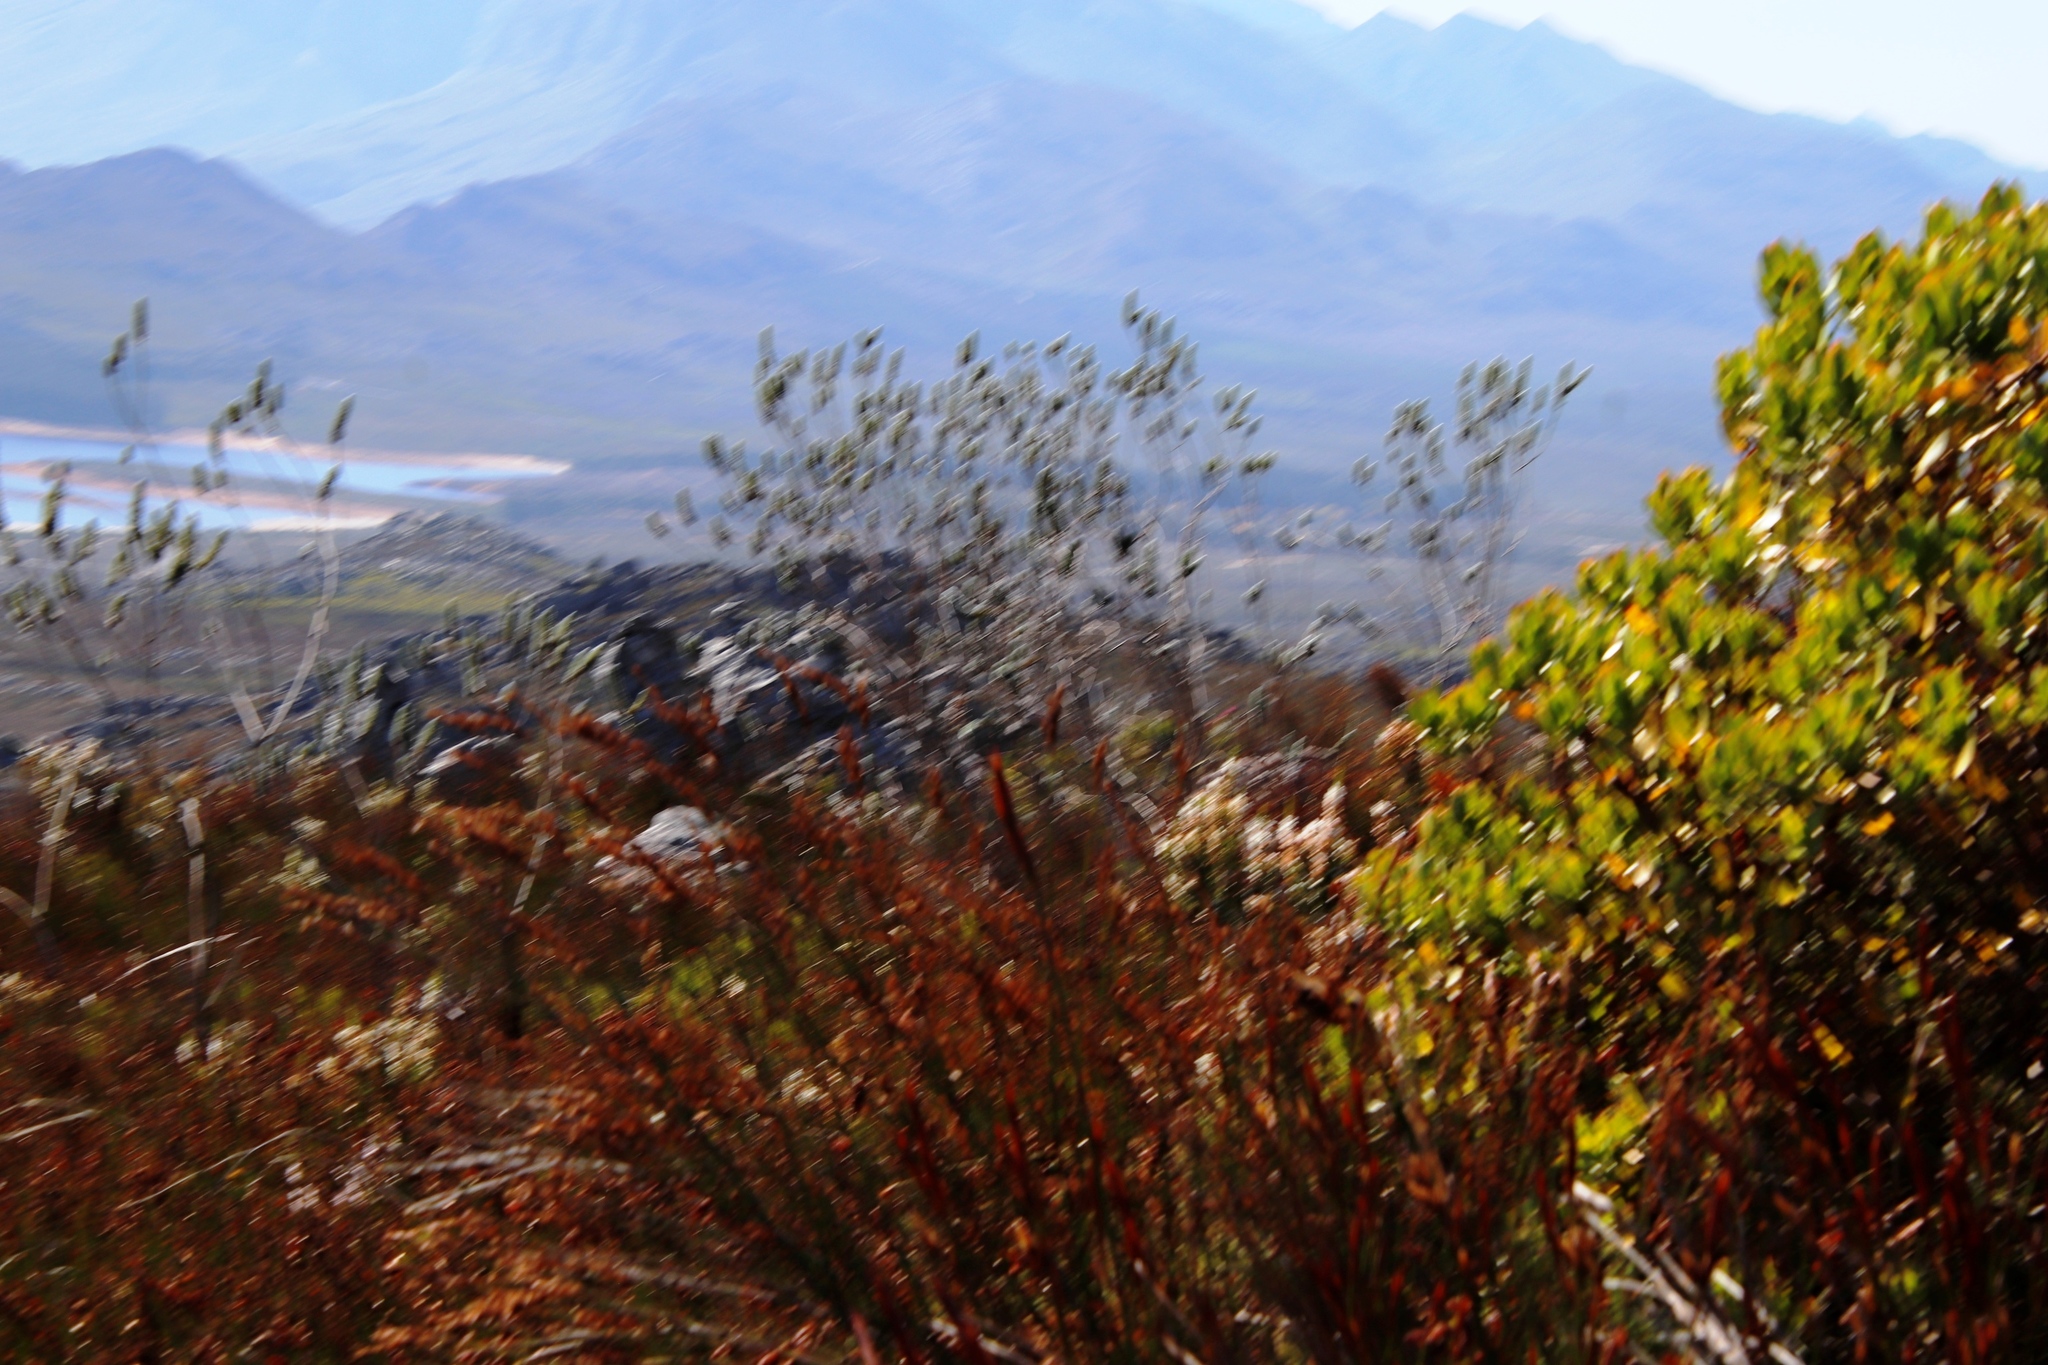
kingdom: Plantae
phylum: Tracheophyta
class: Magnoliopsida
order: Fabales
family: Fabaceae
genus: Liparia
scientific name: Liparia calycina
